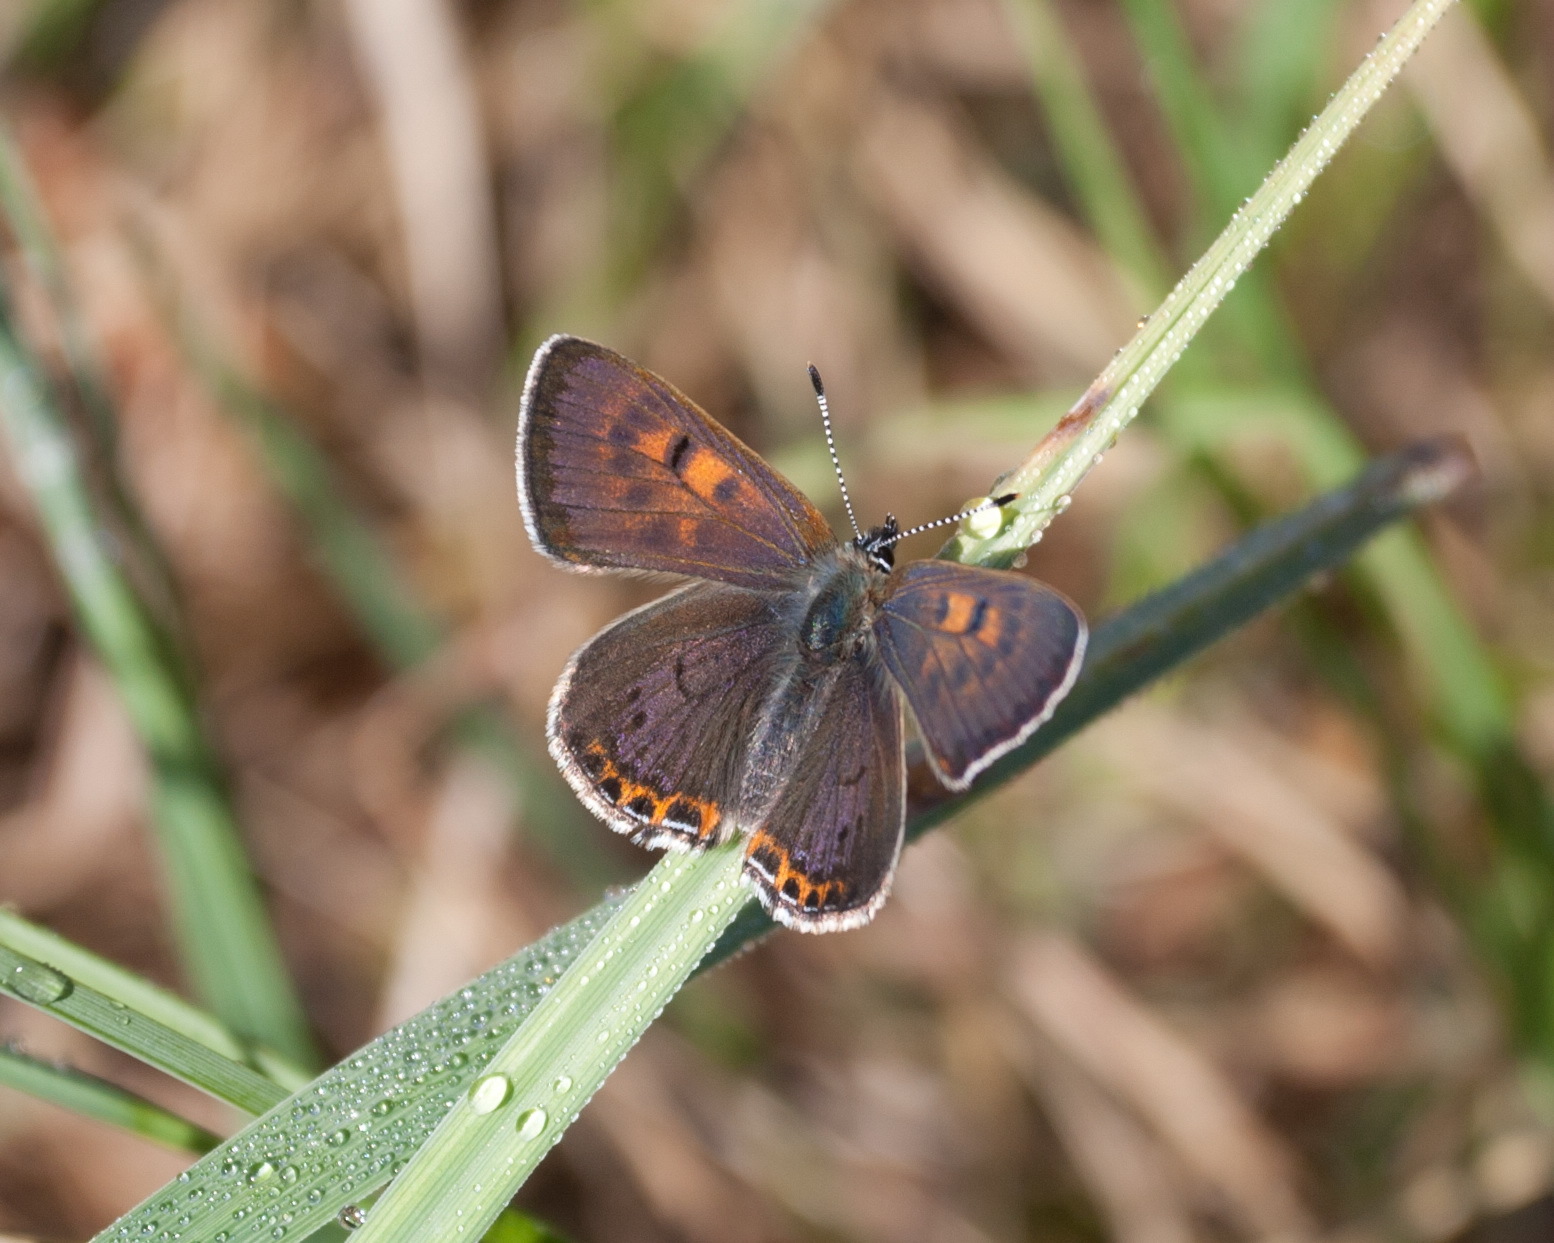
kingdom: Animalia
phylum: Arthropoda
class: Insecta
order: Lepidoptera
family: Lycaenidae
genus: Helleia
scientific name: Helleia helle
